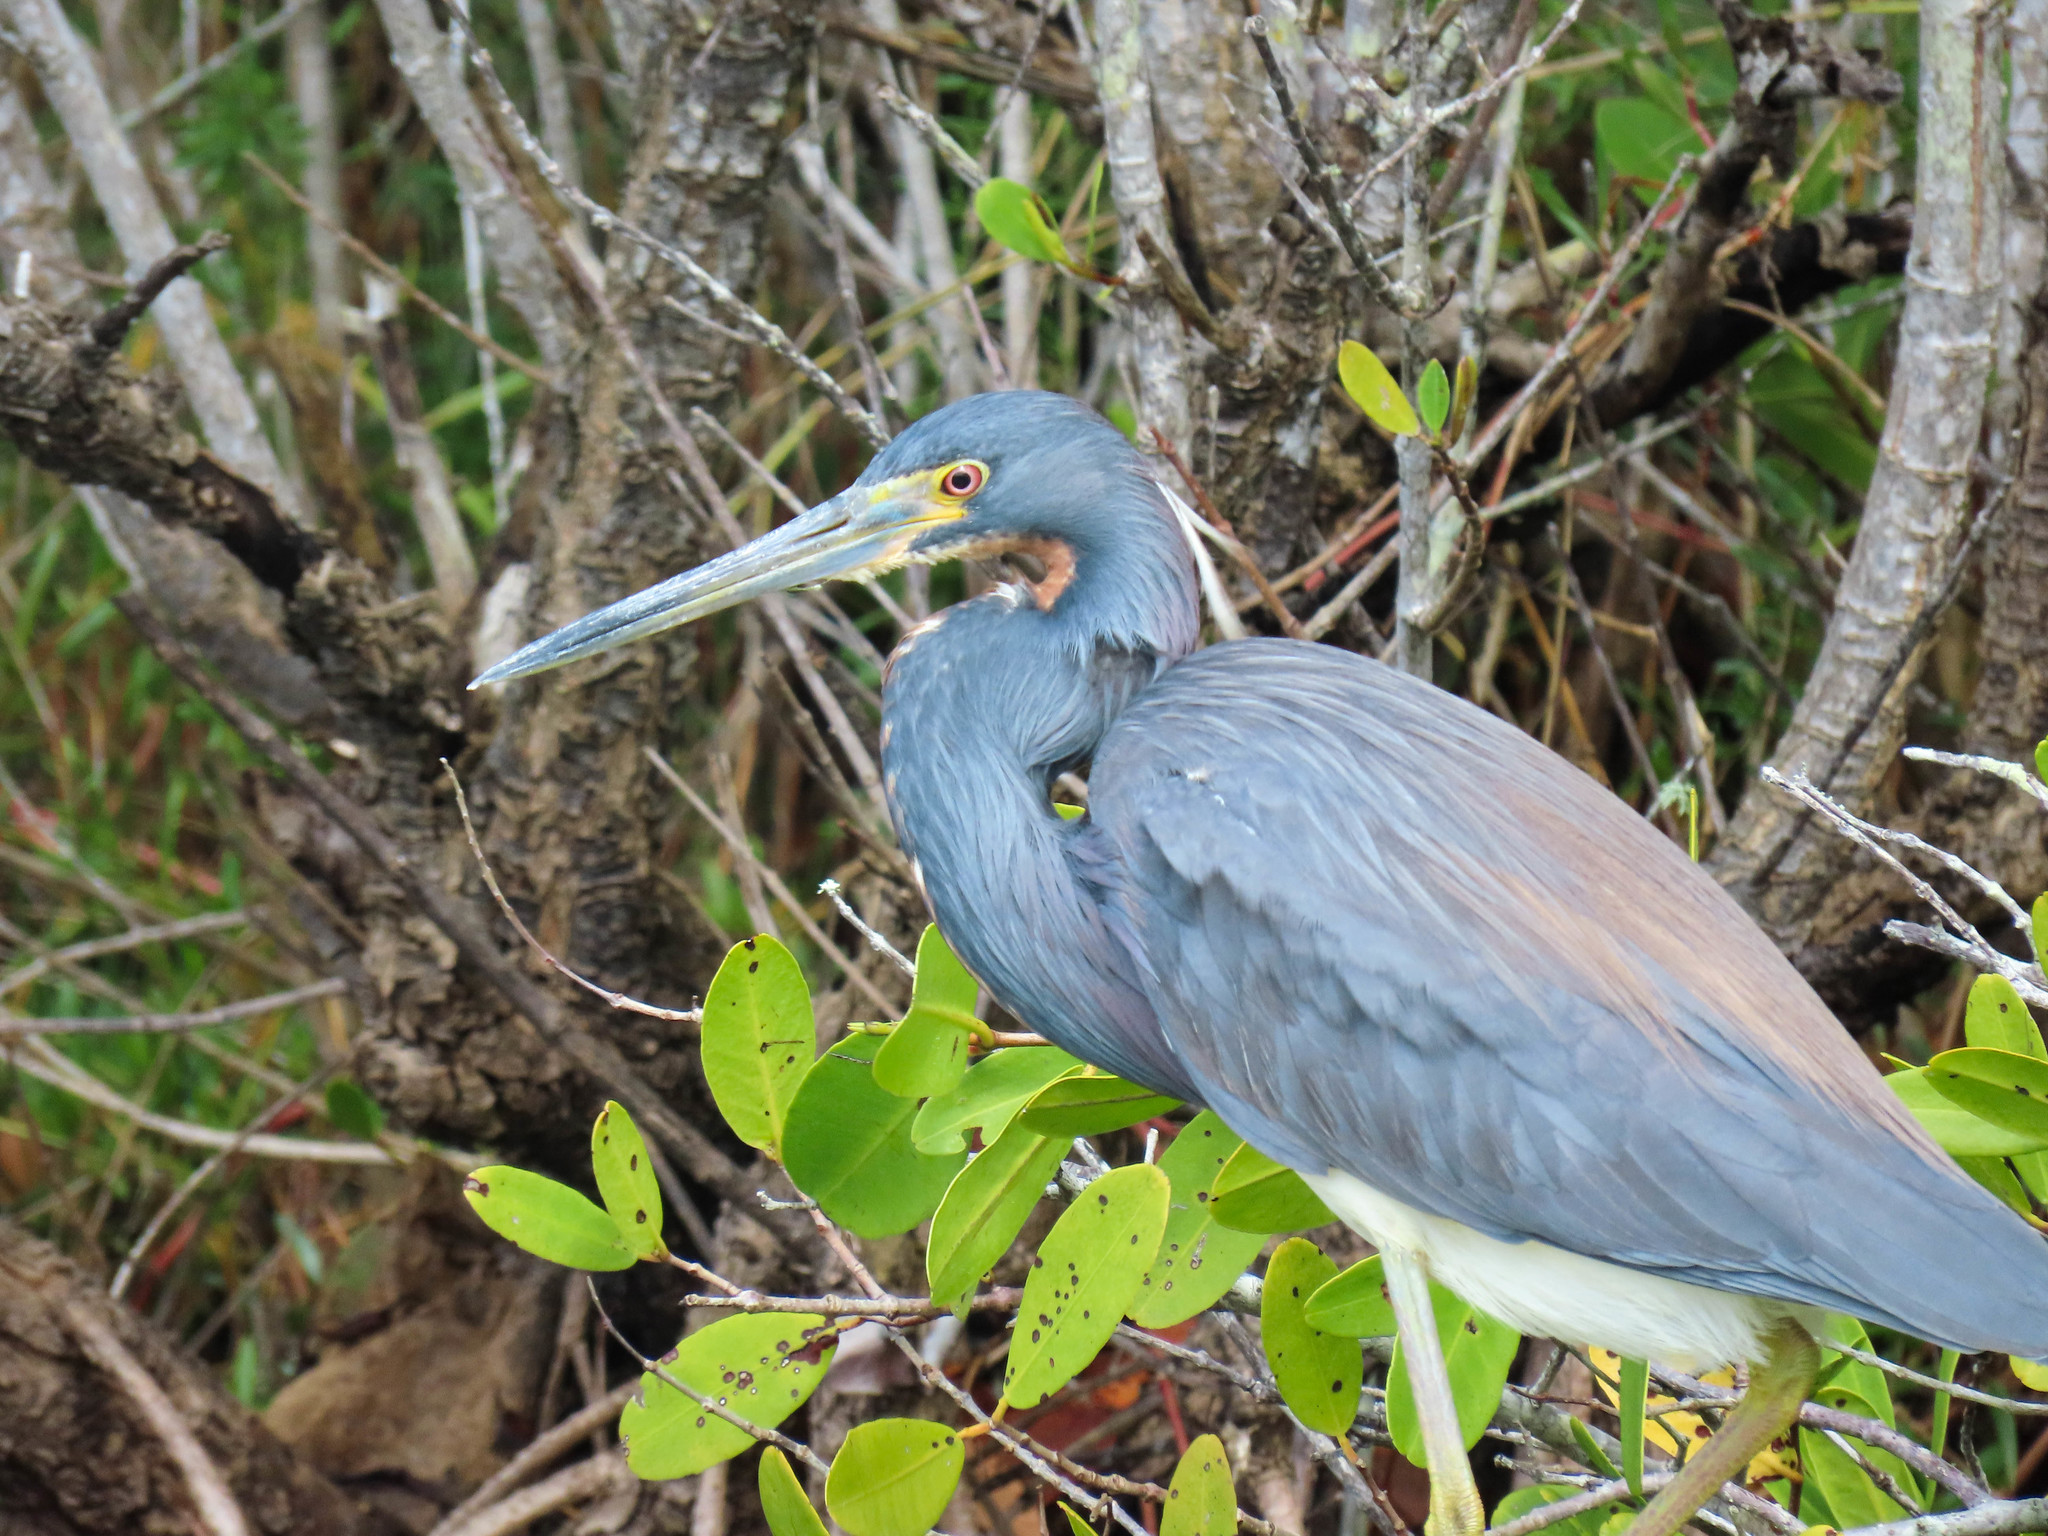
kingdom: Animalia
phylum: Chordata
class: Aves
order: Pelecaniformes
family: Ardeidae
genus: Egretta
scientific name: Egretta tricolor
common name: Tricolored heron
